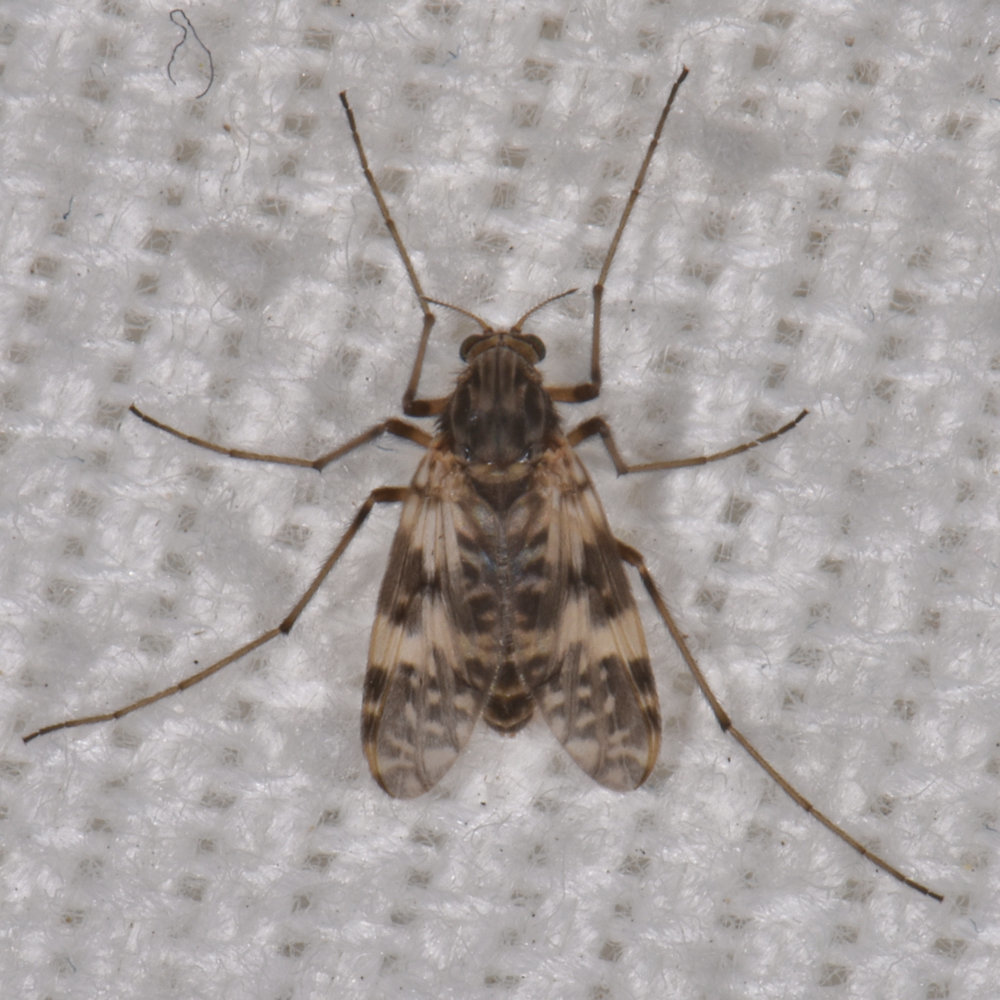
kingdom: Animalia
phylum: Arthropoda
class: Insecta
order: Diptera
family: Chironomidae
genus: Psectrotanypus
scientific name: Psectrotanypus dyari
